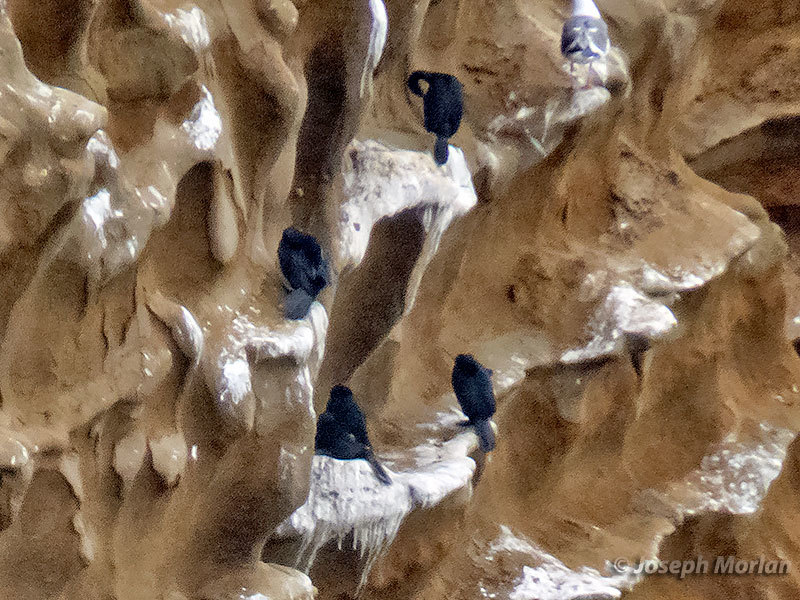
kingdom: Animalia
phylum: Chordata
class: Aves
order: Suliformes
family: Phalacrocoracidae
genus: Phalacrocorax
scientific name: Phalacrocorax pelagicus
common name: Pelagic cormorant
